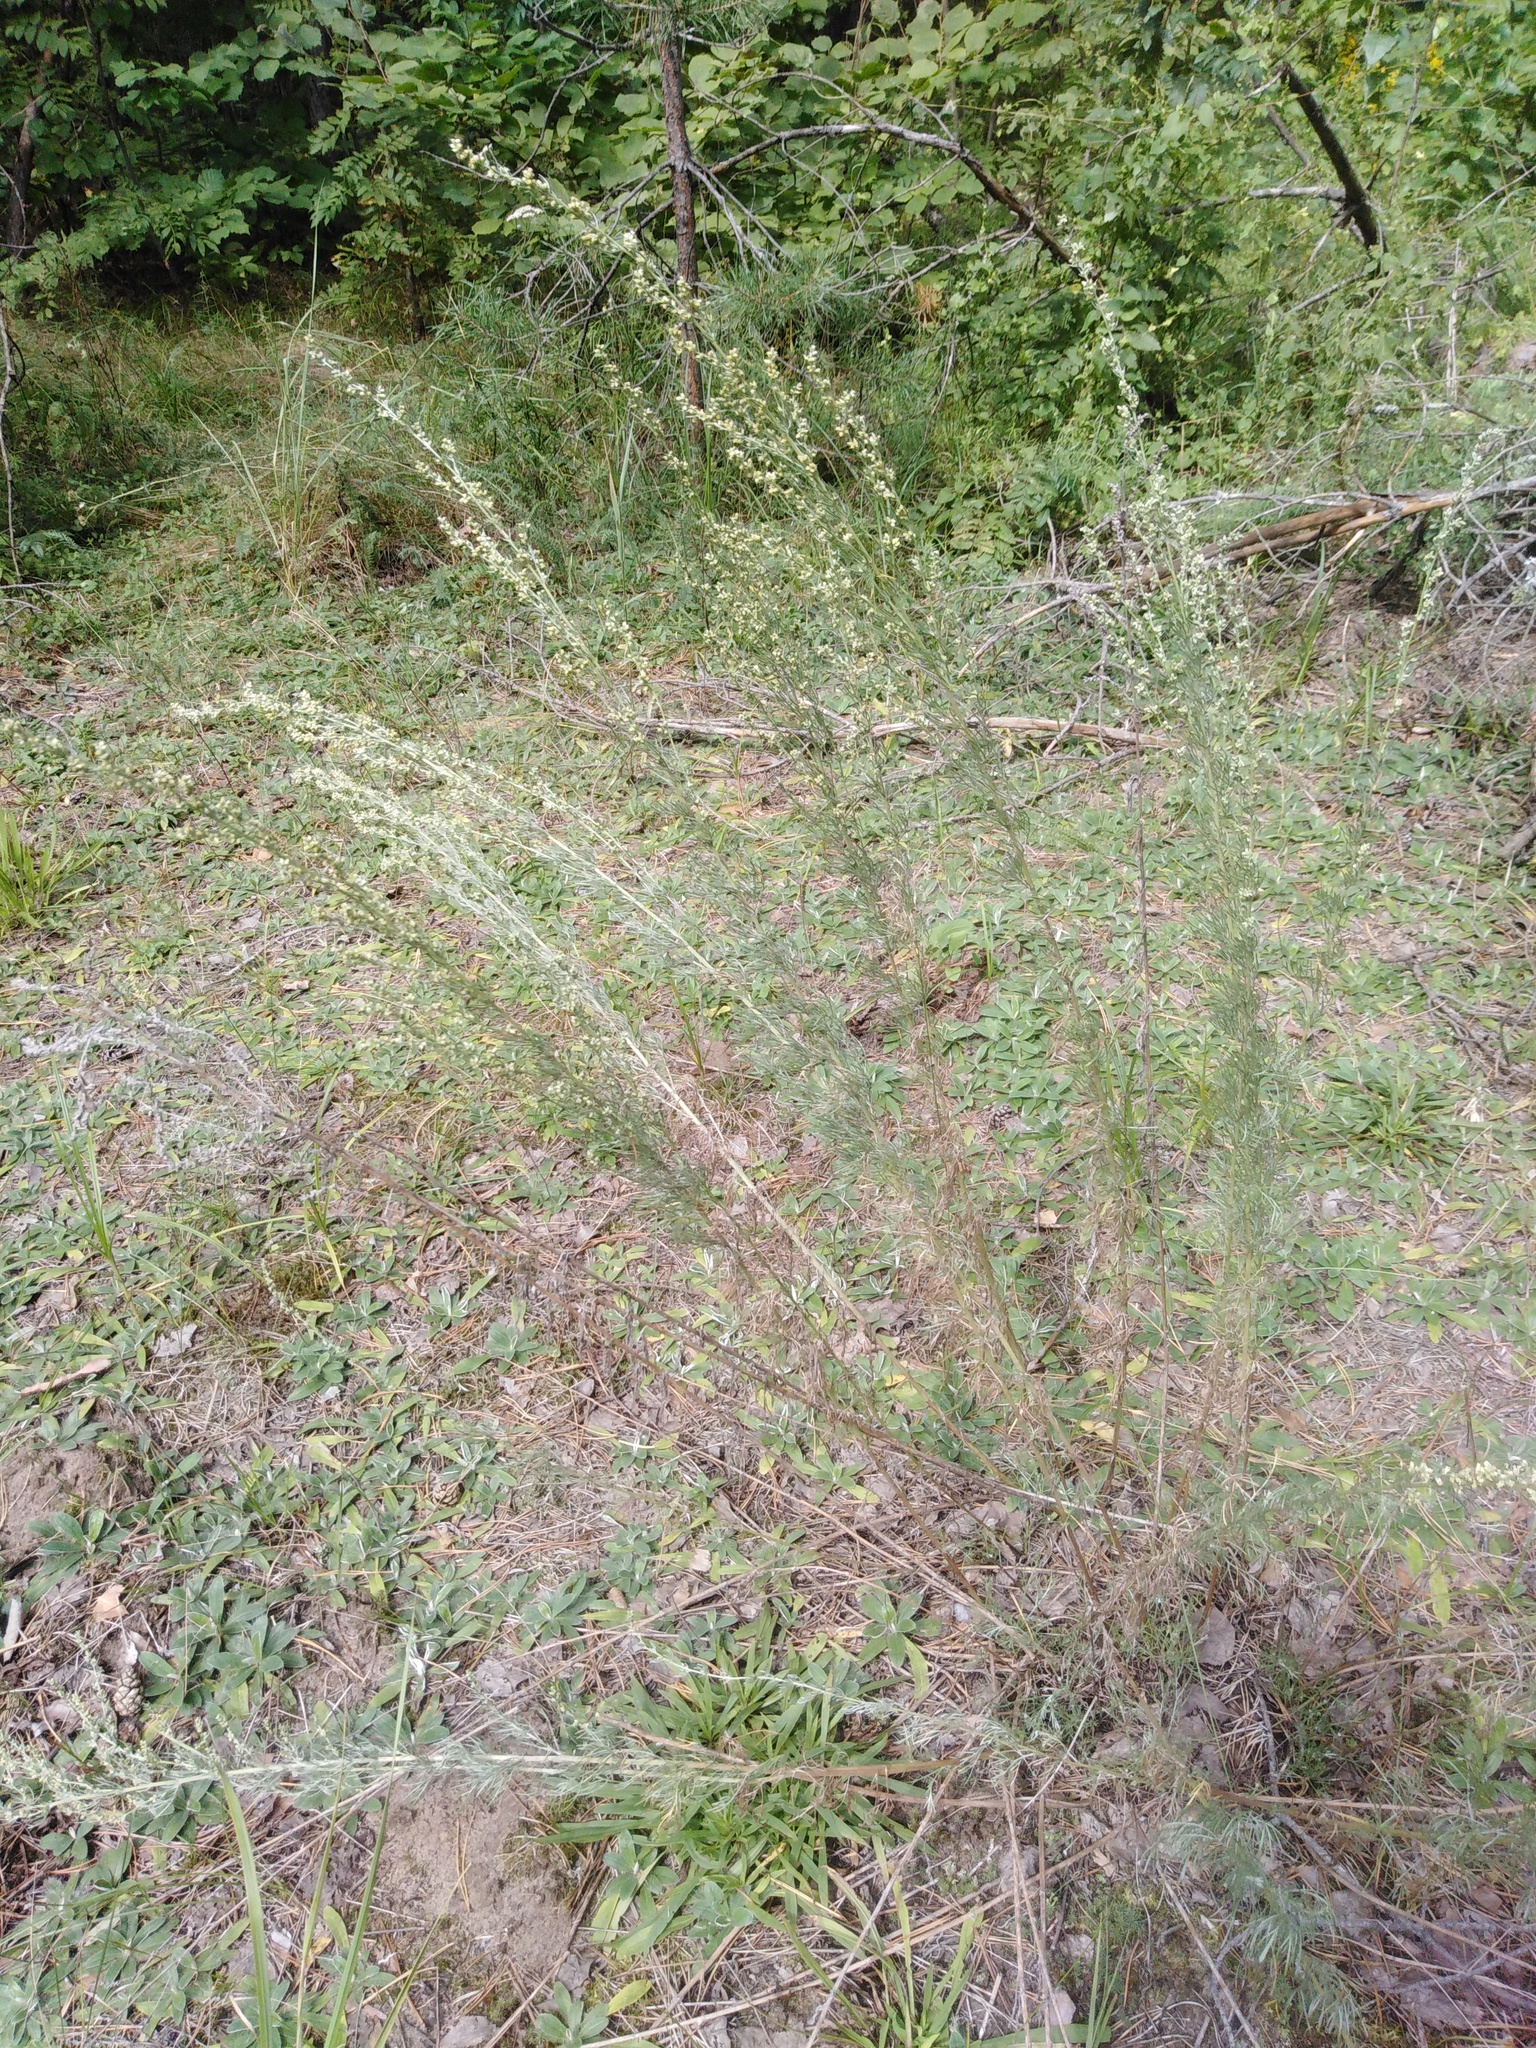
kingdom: Plantae
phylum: Tracheophyta
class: Magnoliopsida
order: Asterales
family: Asteraceae
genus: Artemisia
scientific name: Artemisia campestris
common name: Field wormwood
